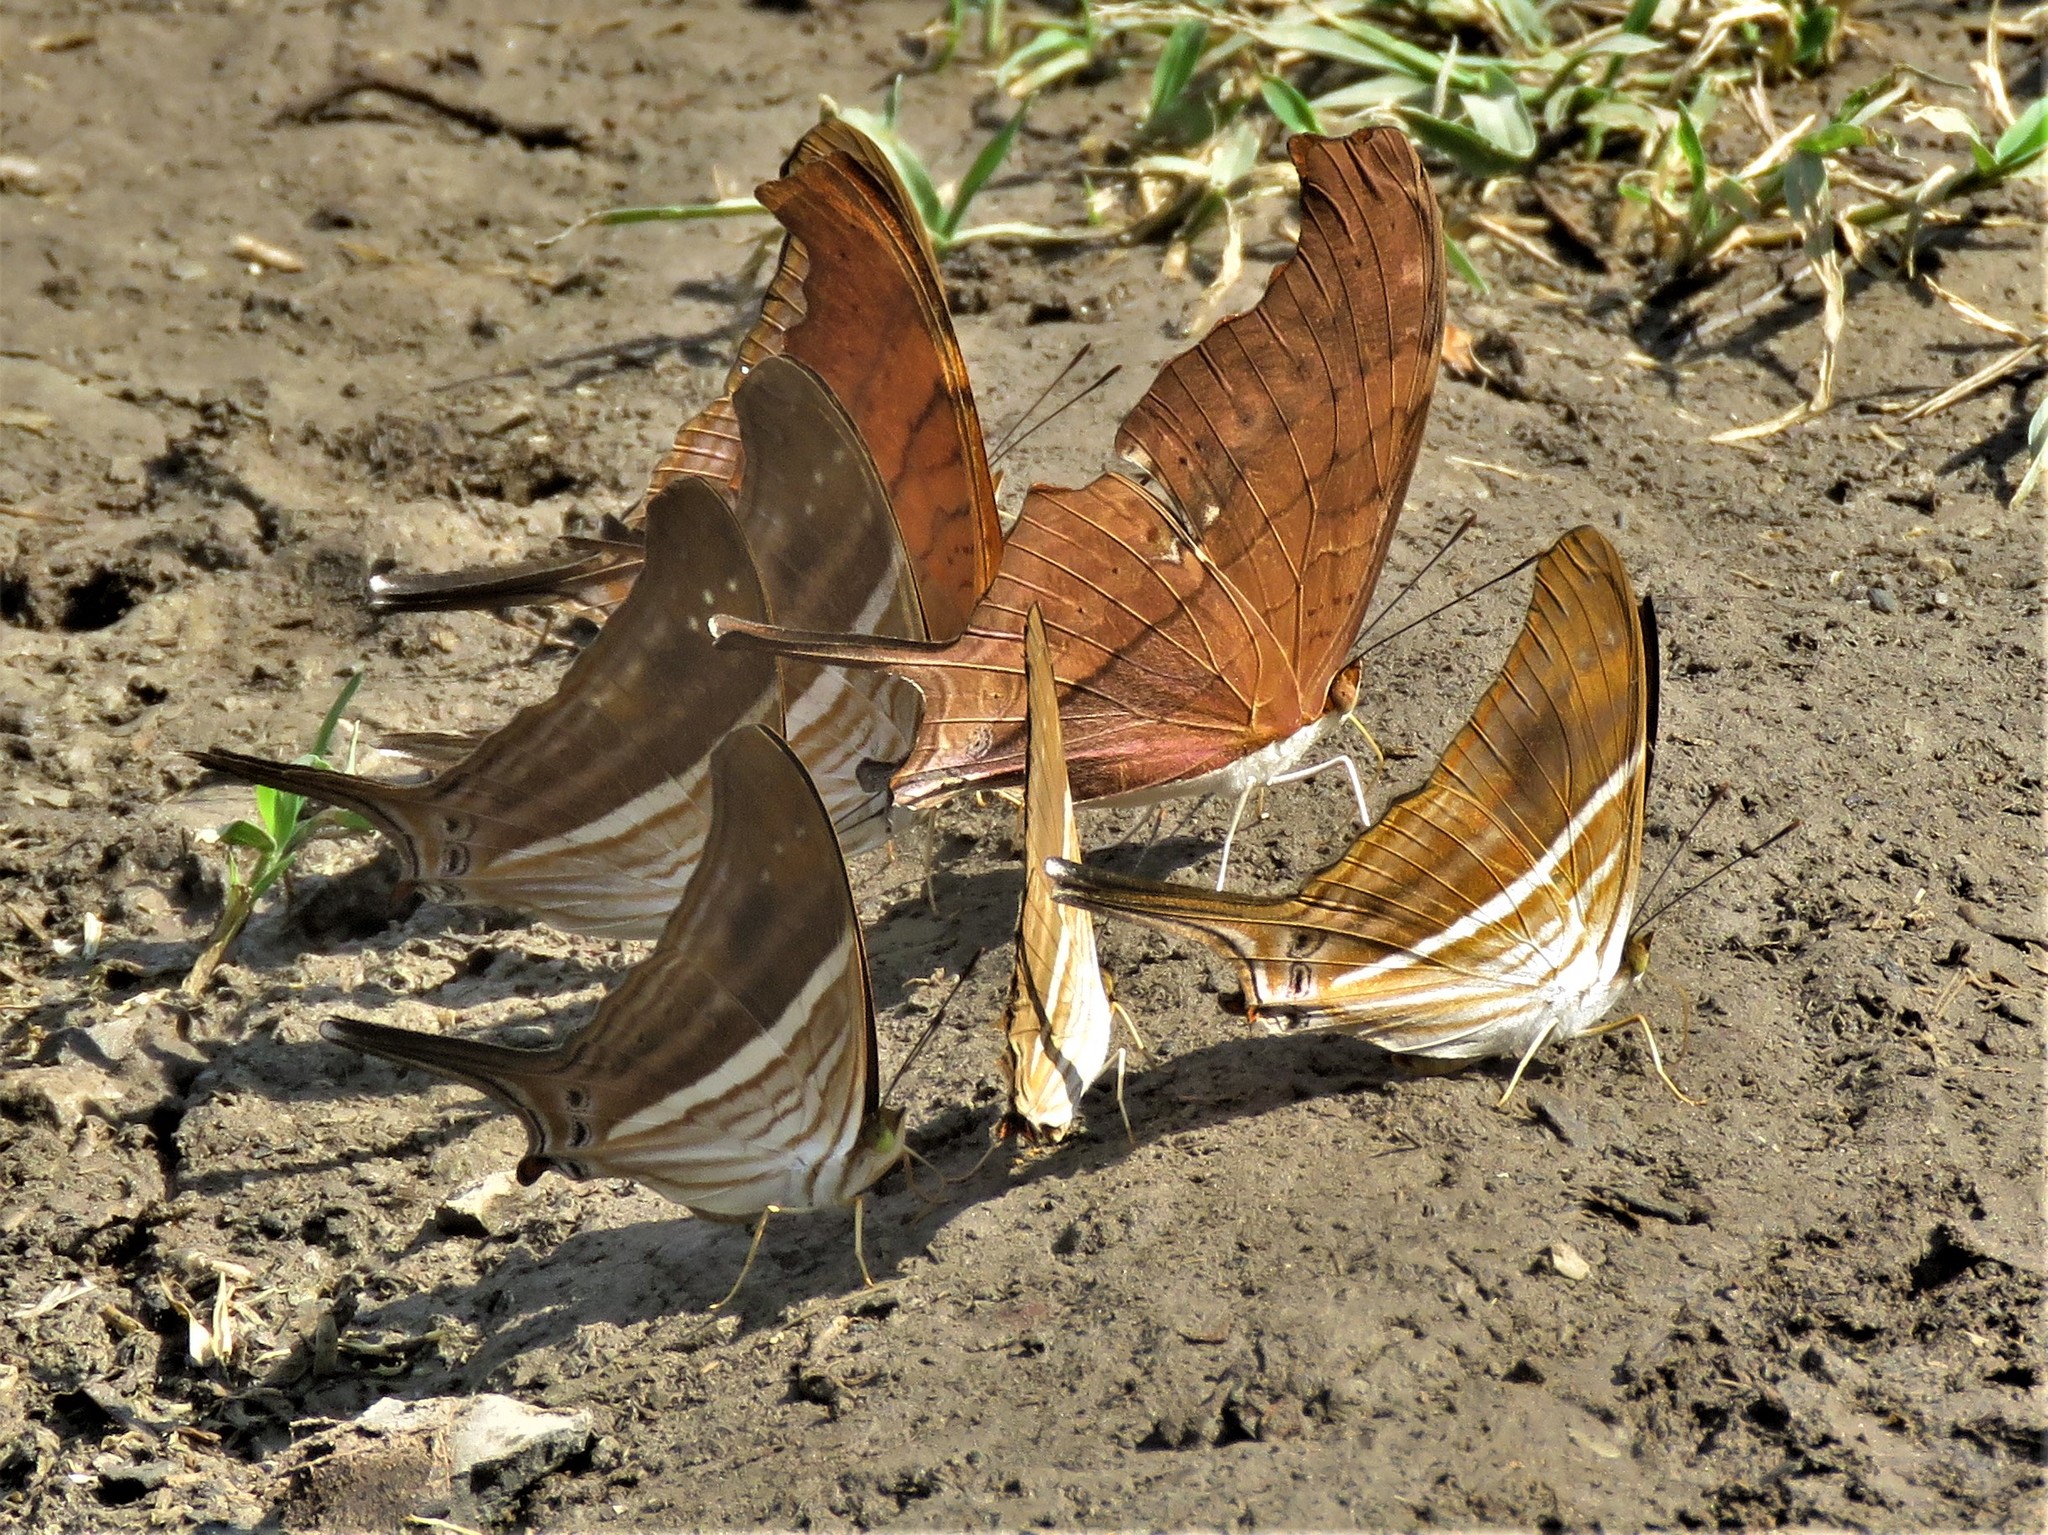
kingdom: Animalia
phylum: Arthropoda
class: Insecta
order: Lepidoptera
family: Nymphalidae
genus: Marpesia
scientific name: Marpesia chiron
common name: Many-banded daggerwing
